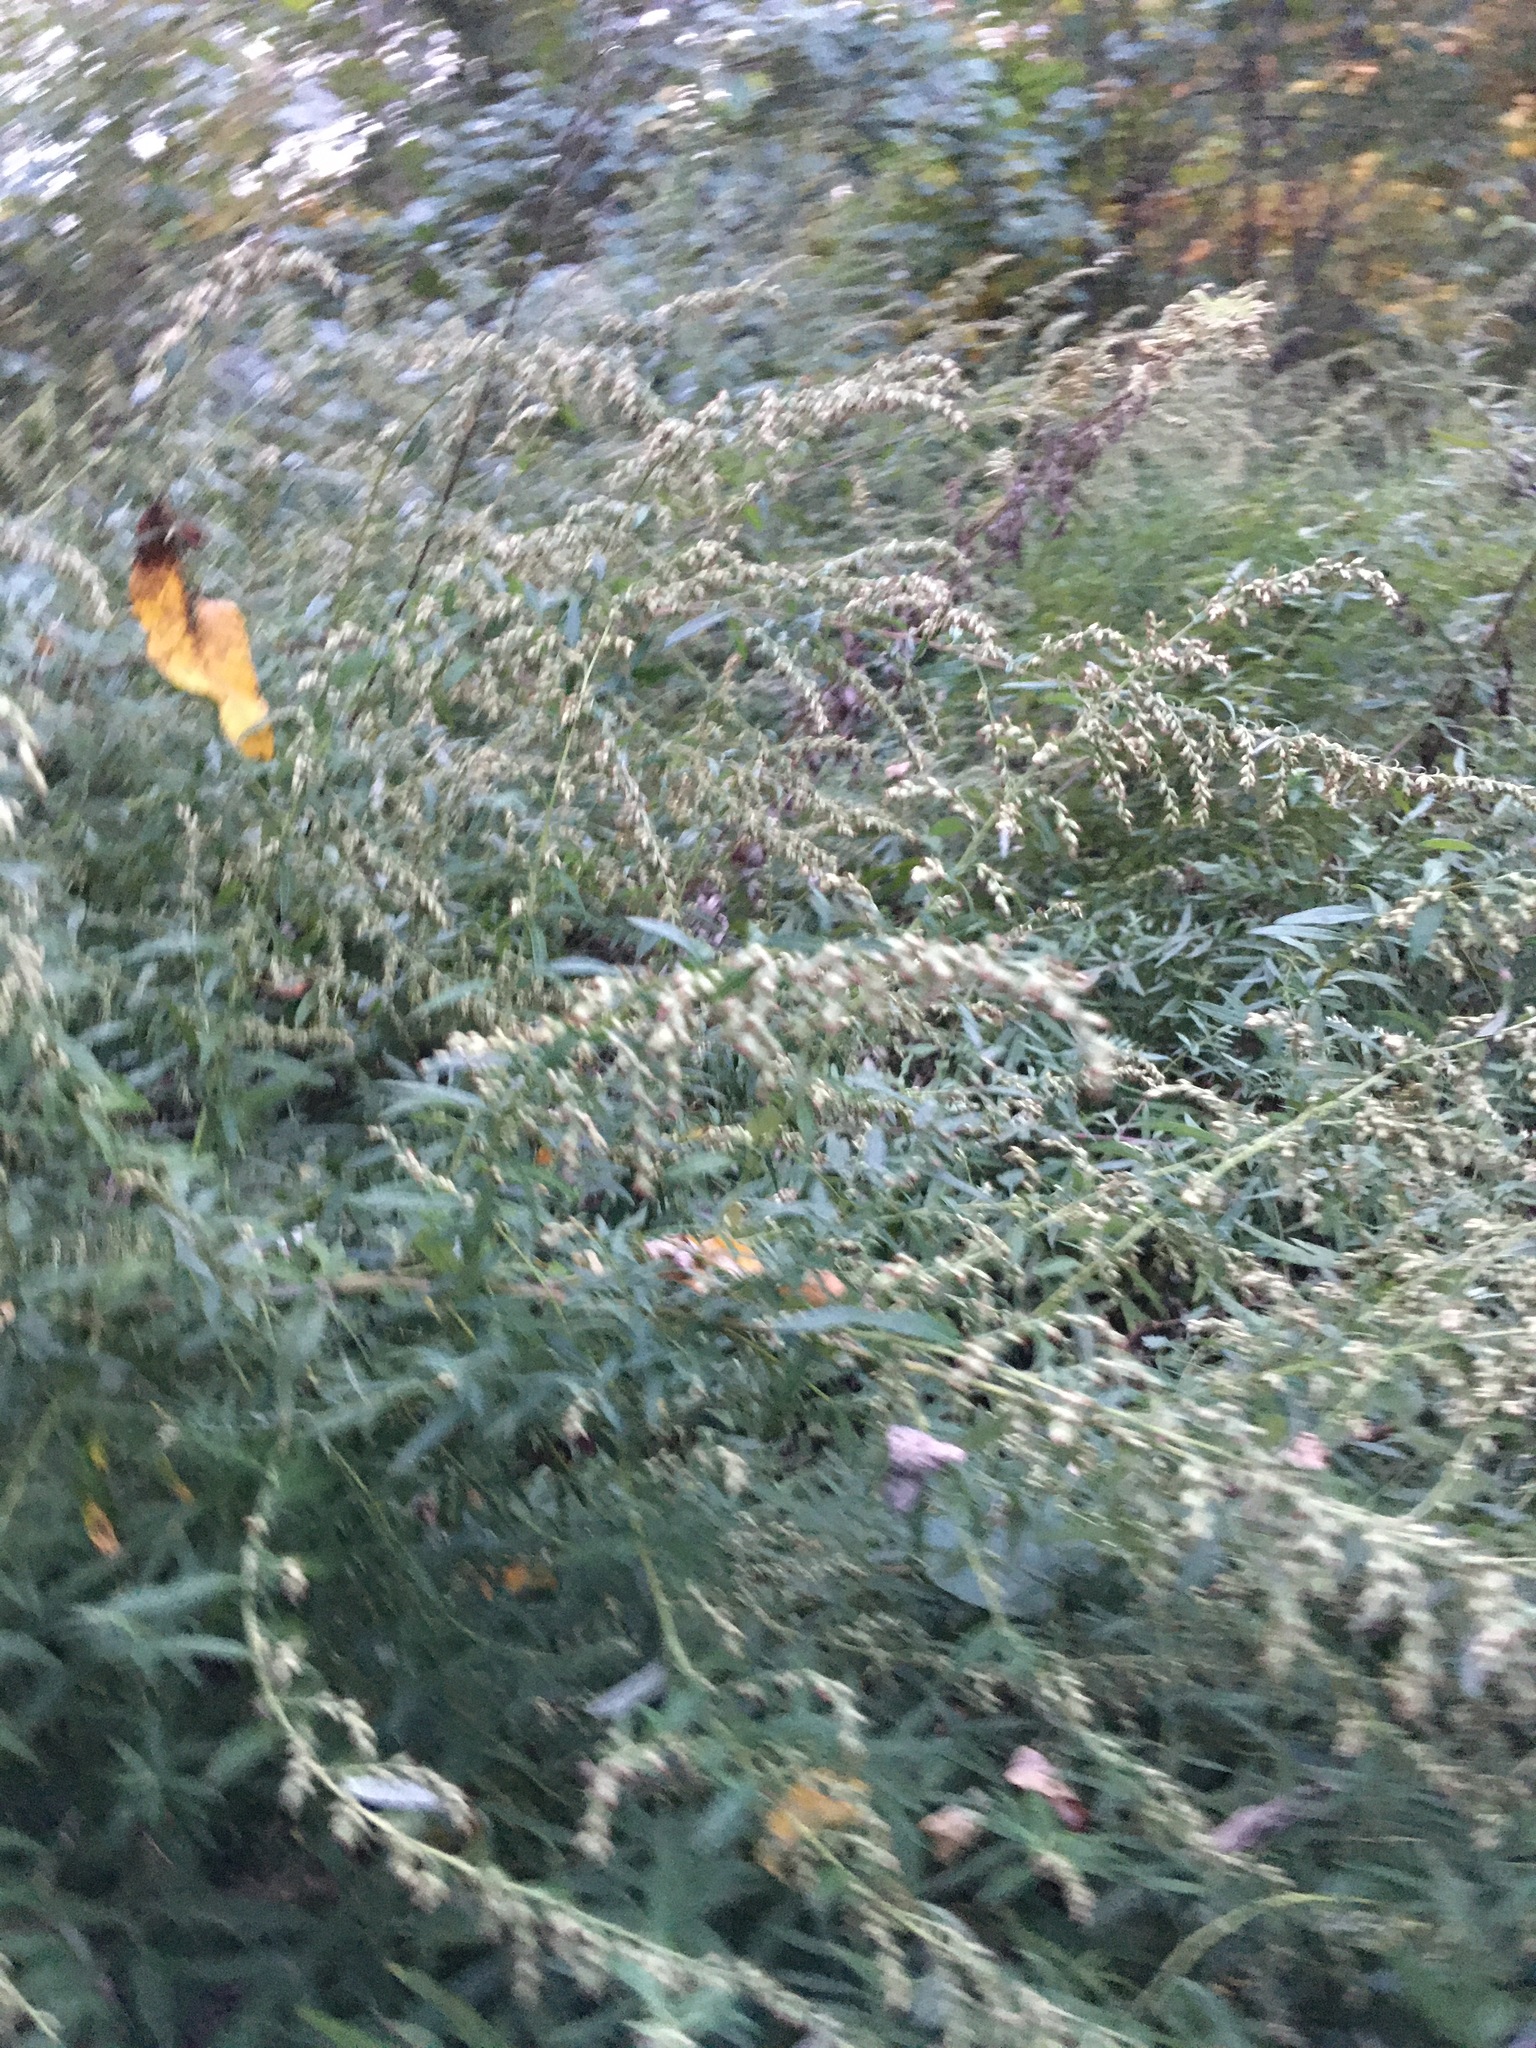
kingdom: Plantae
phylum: Tracheophyta
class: Magnoliopsida
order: Asterales
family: Asteraceae
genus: Artemisia
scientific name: Artemisia vulgaris
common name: Mugwort
